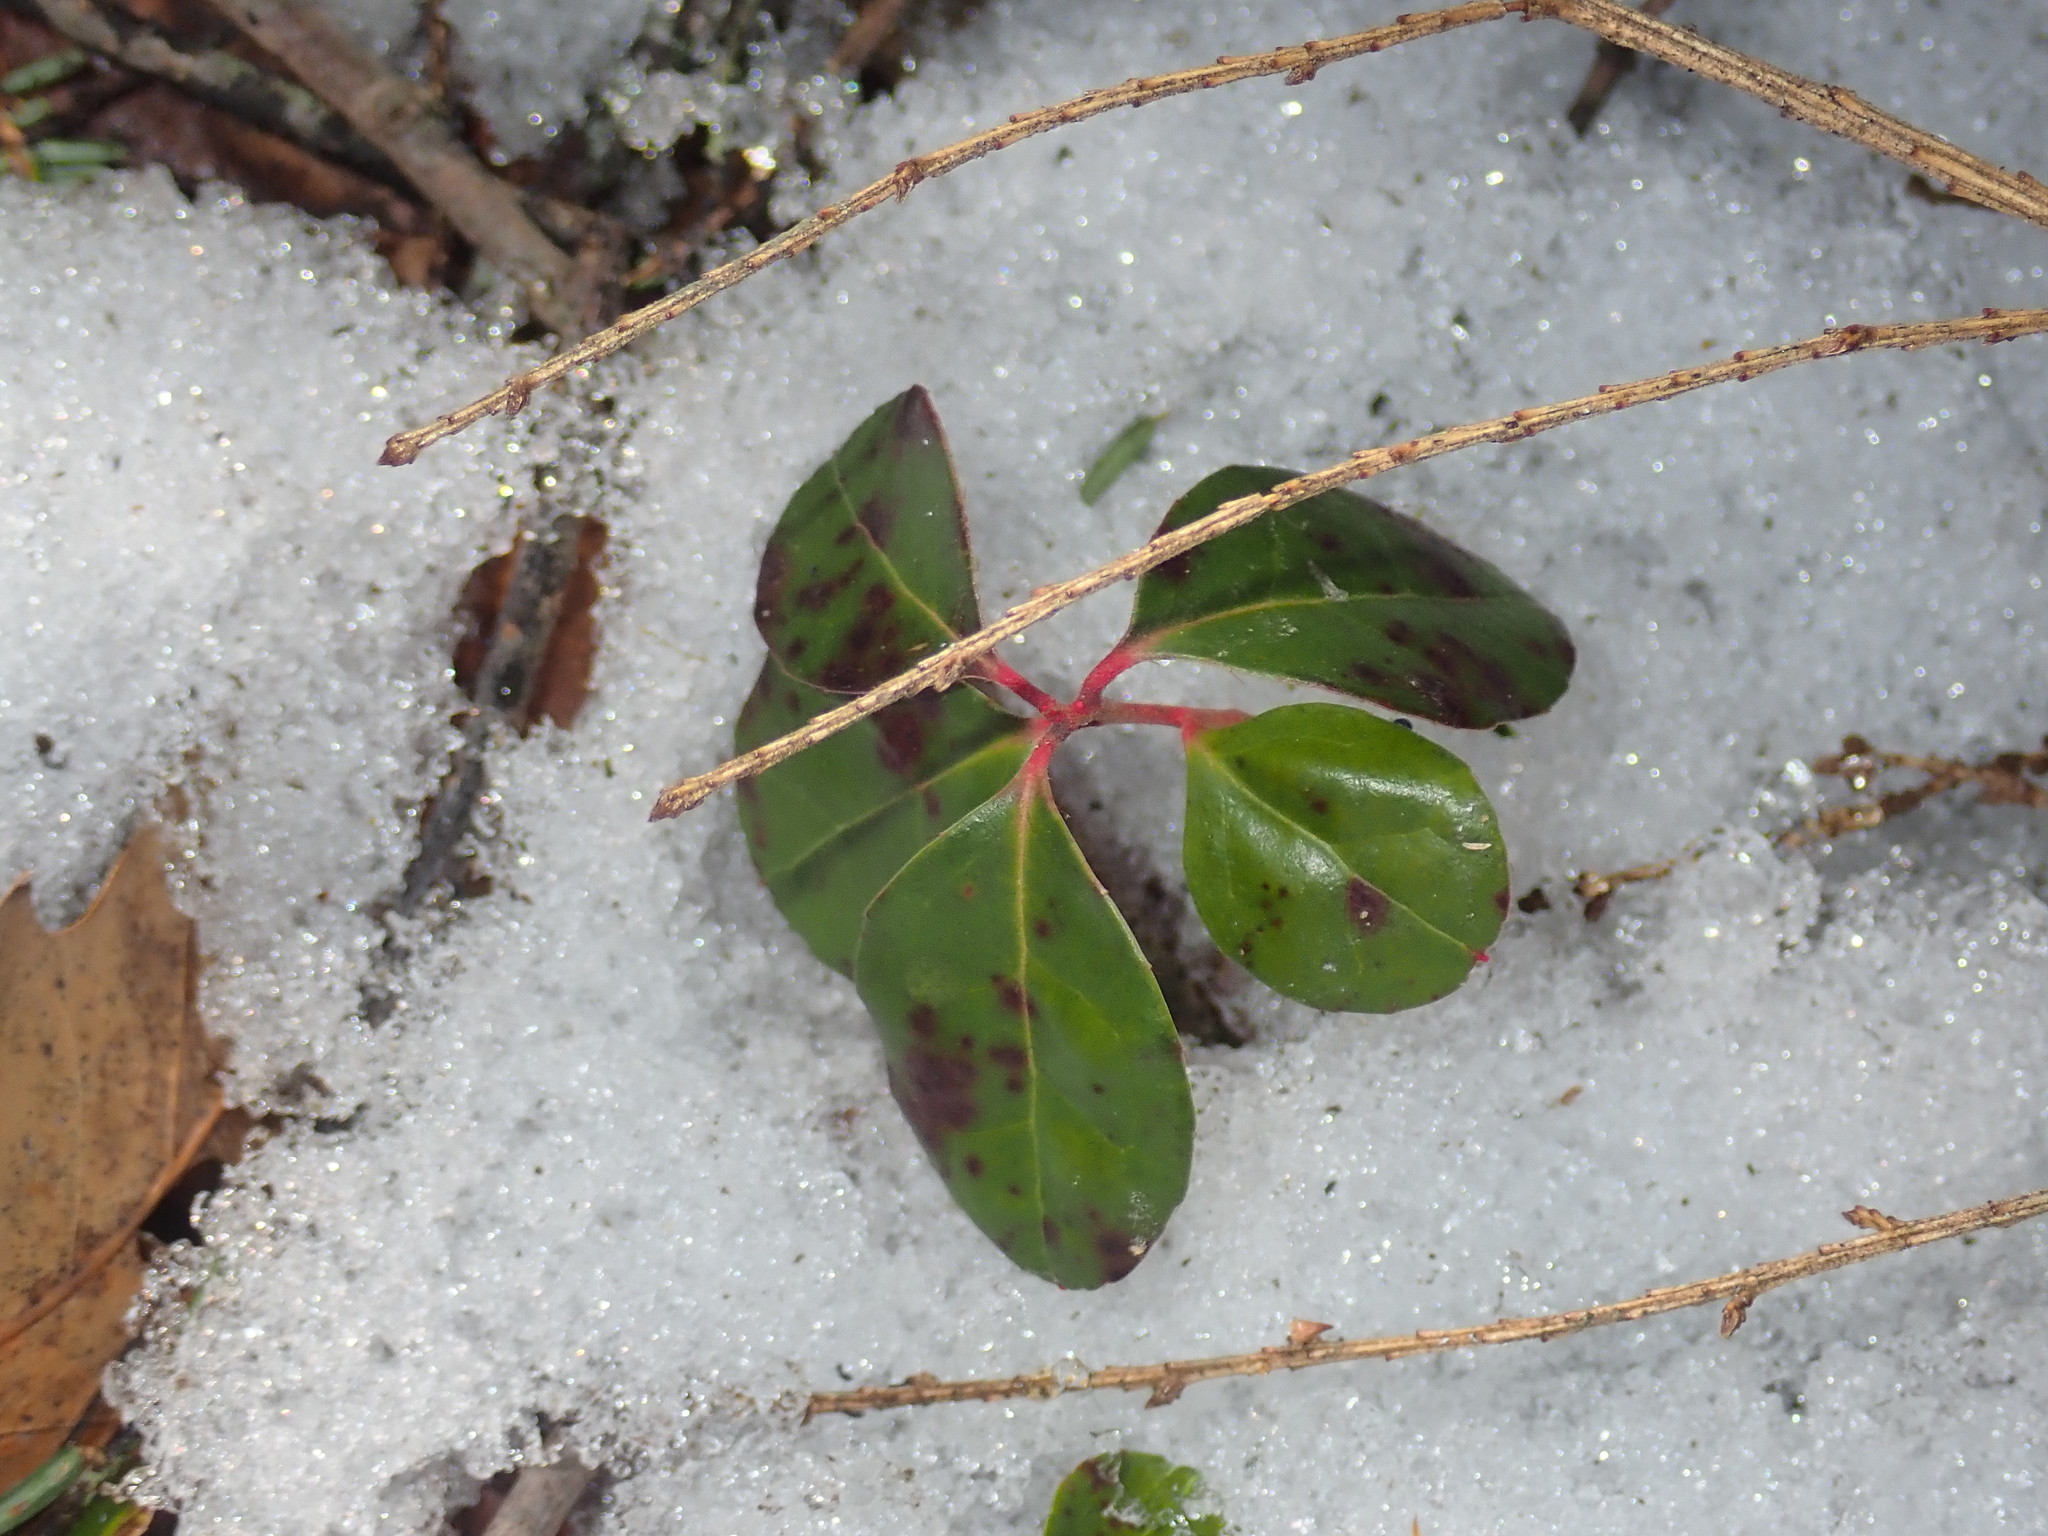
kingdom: Plantae
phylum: Tracheophyta
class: Magnoliopsida
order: Ericales
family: Ericaceae
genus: Gaultheria
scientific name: Gaultheria procumbens
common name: Checkerberry
